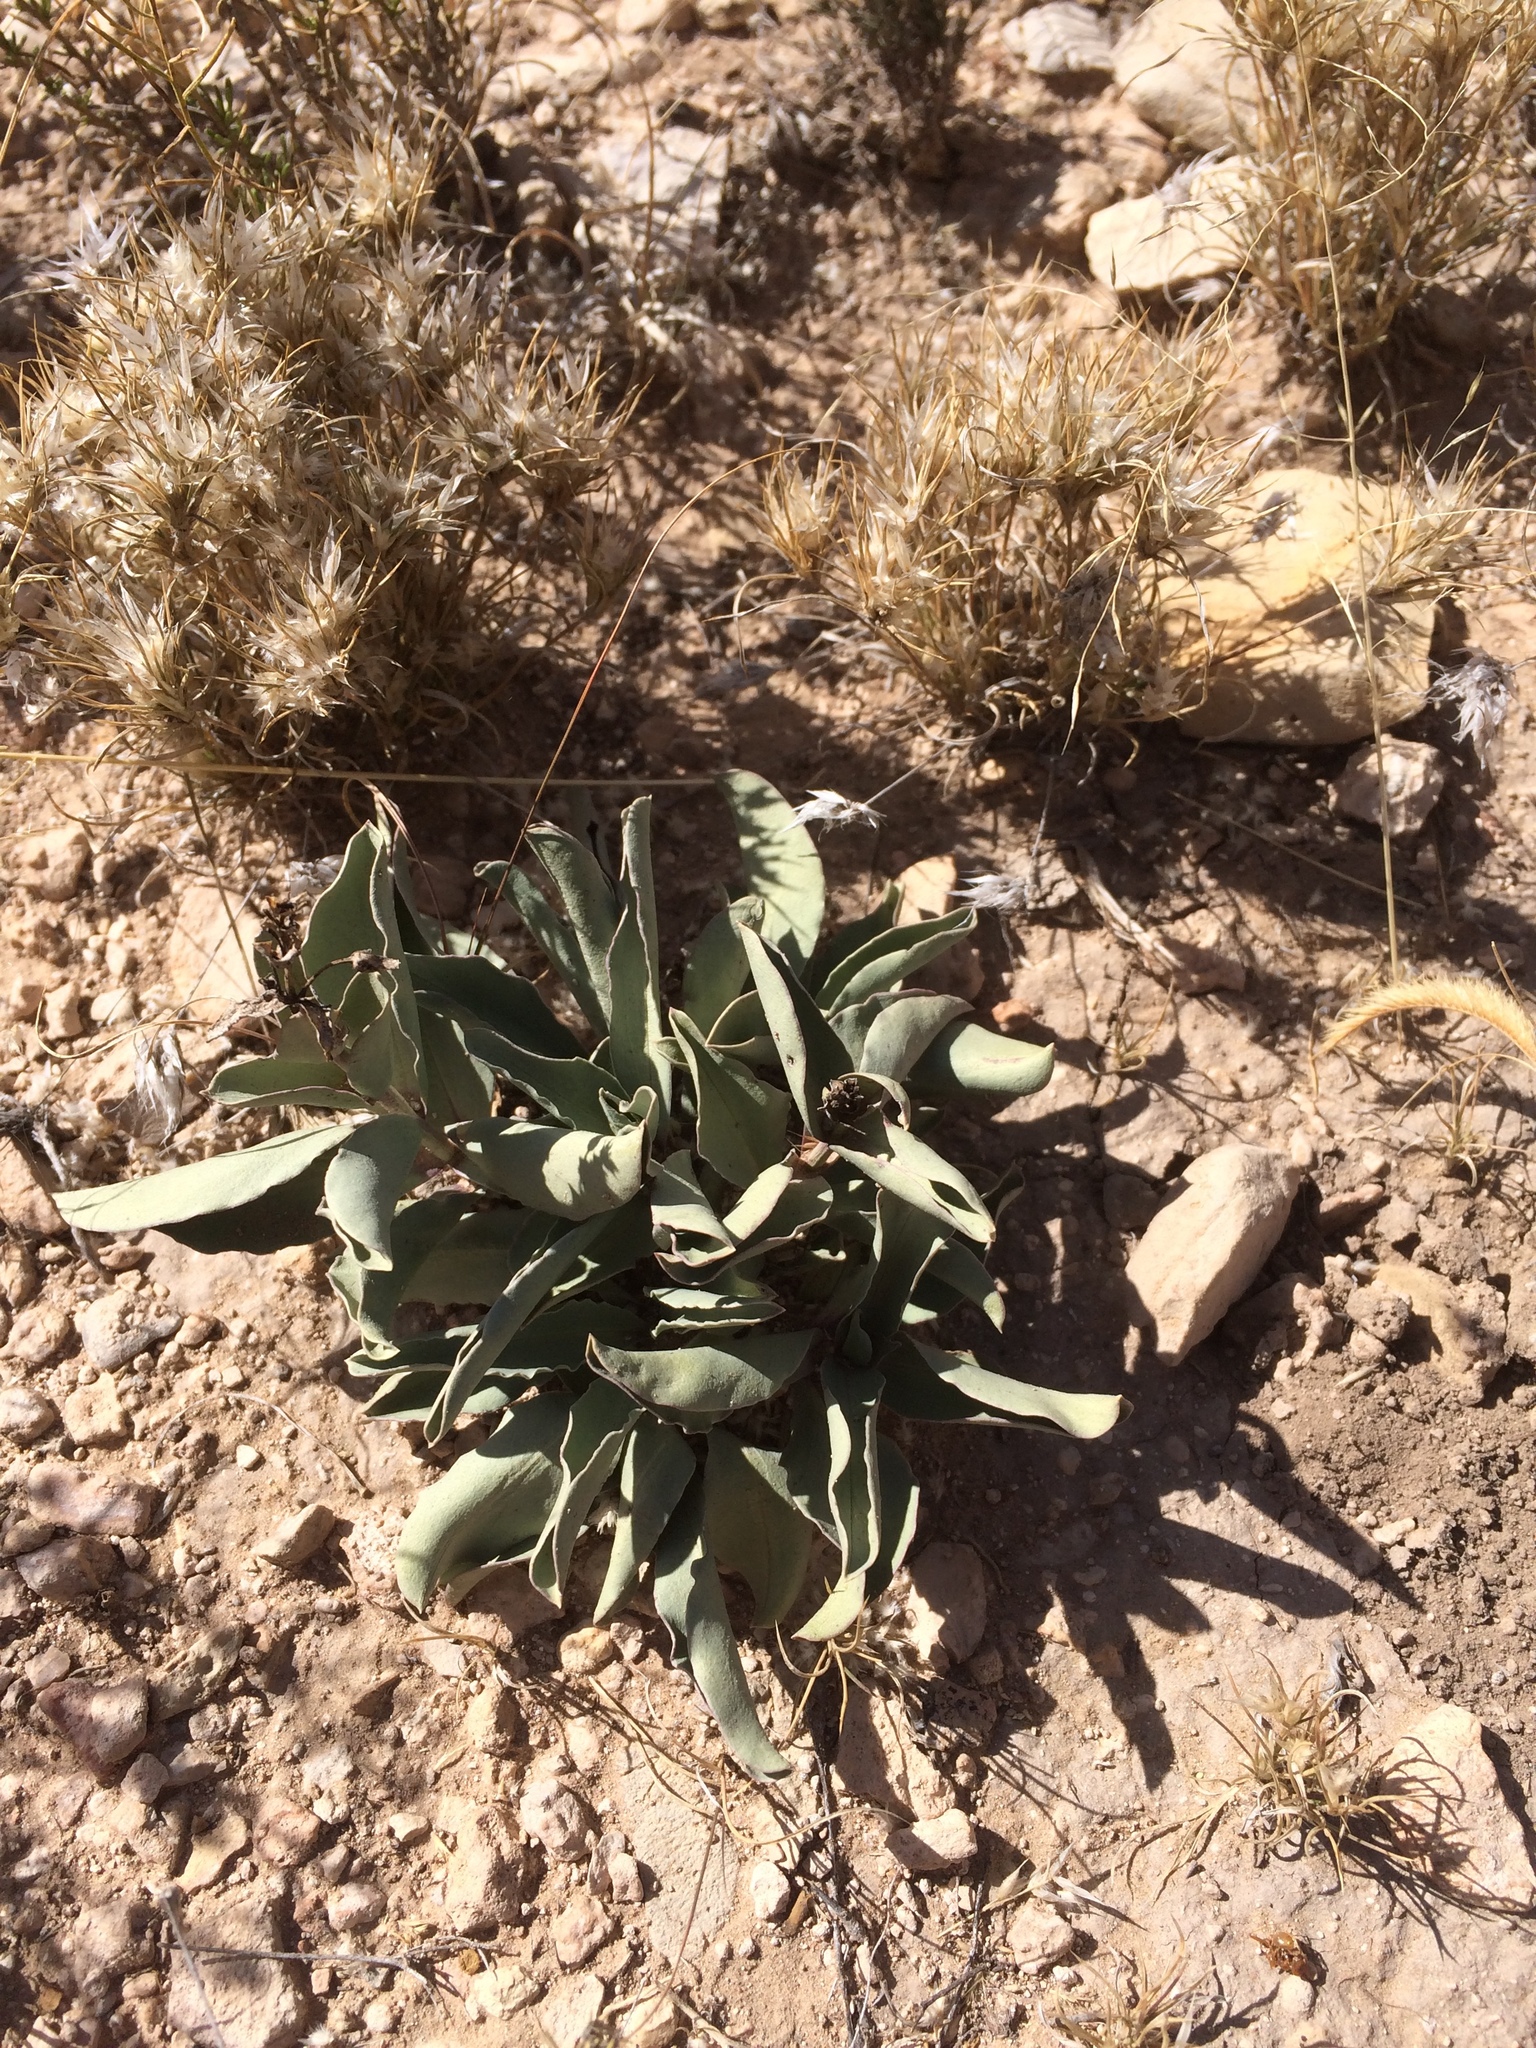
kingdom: Plantae
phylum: Tracheophyta
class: Magnoliopsida
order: Lamiales
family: Plantaginaceae
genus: Penstemon
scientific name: Penstemon fendleri
